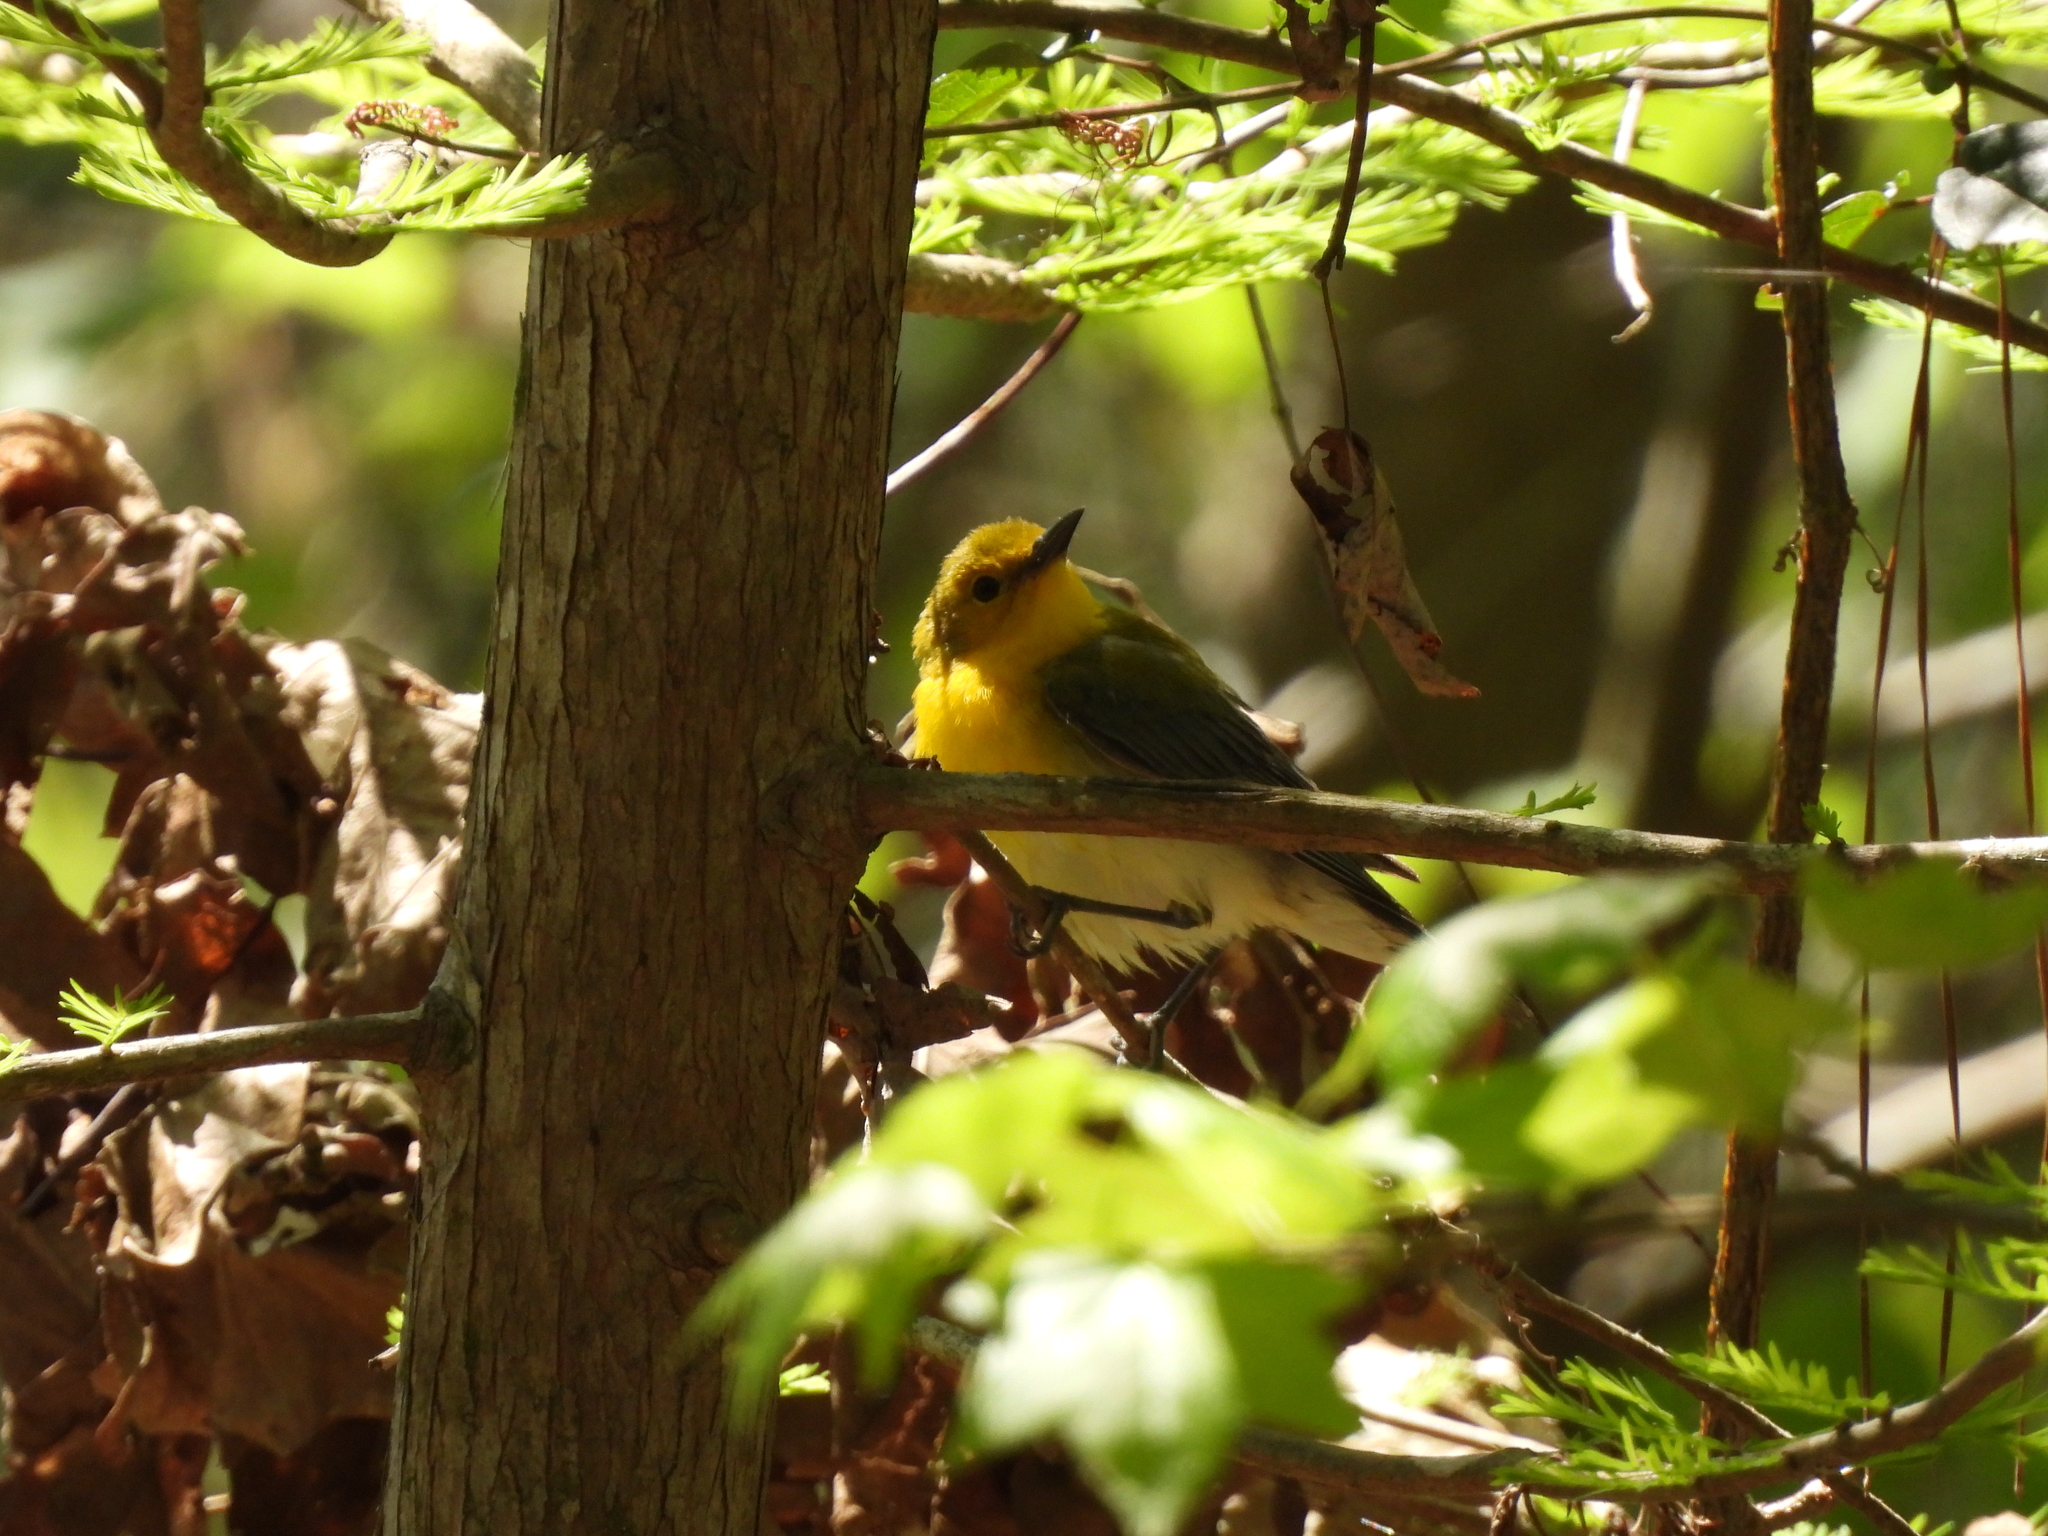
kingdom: Animalia
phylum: Chordata
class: Aves
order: Passeriformes
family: Parulidae
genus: Protonotaria
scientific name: Protonotaria citrea
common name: Prothonotary warbler
